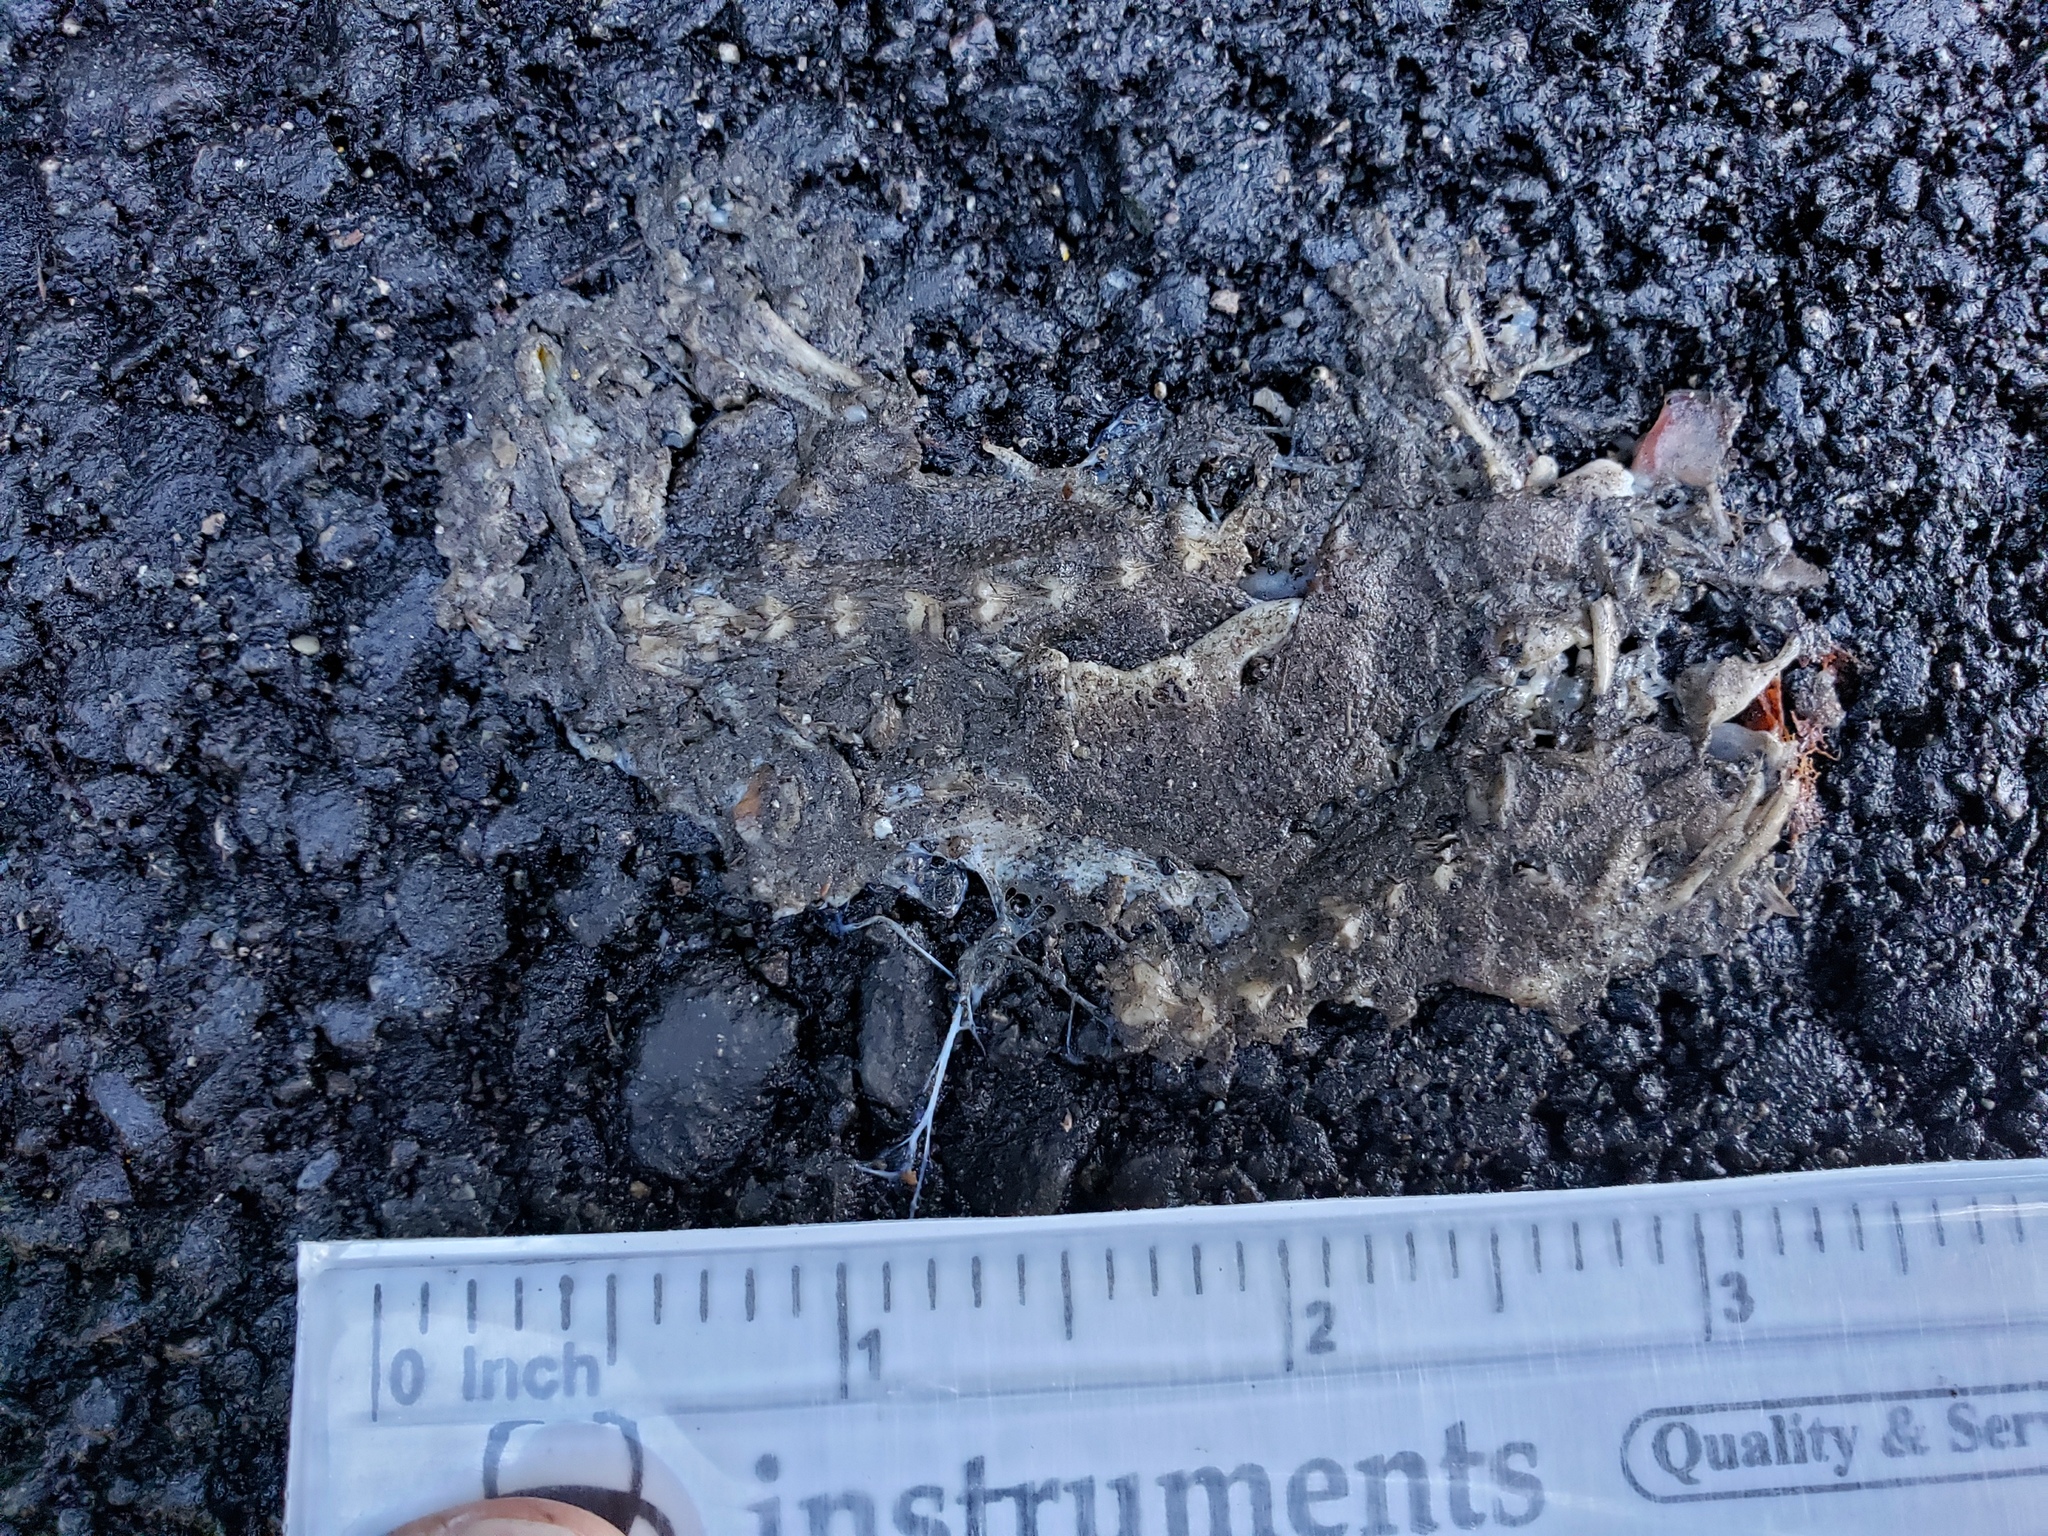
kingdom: Animalia
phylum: Chordata
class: Amphibia
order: Caudata
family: Salamandridae
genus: Taricha
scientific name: Taricha
